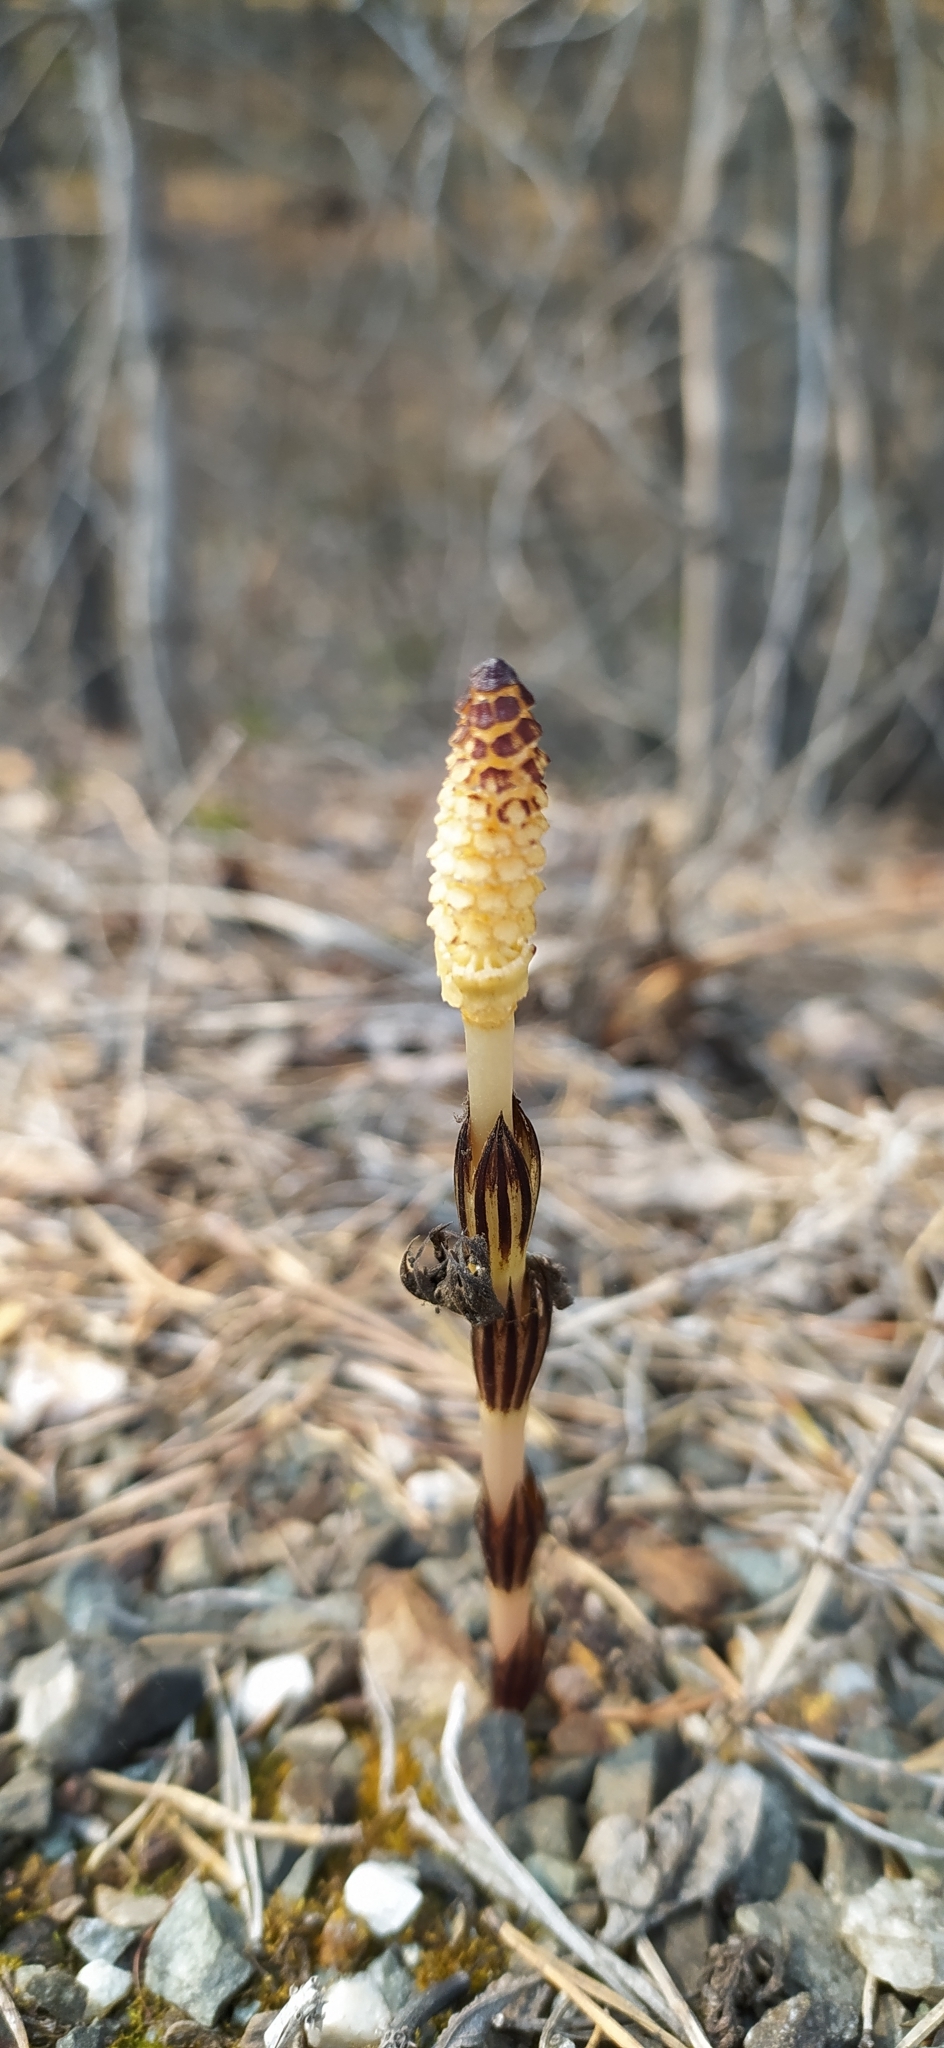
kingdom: Plantae
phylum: Tracheophyta
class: Polypodiopsida
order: Equisetales
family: Equisetaceae
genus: Equisetum
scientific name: Equisetum arvense
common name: Field horsetail
